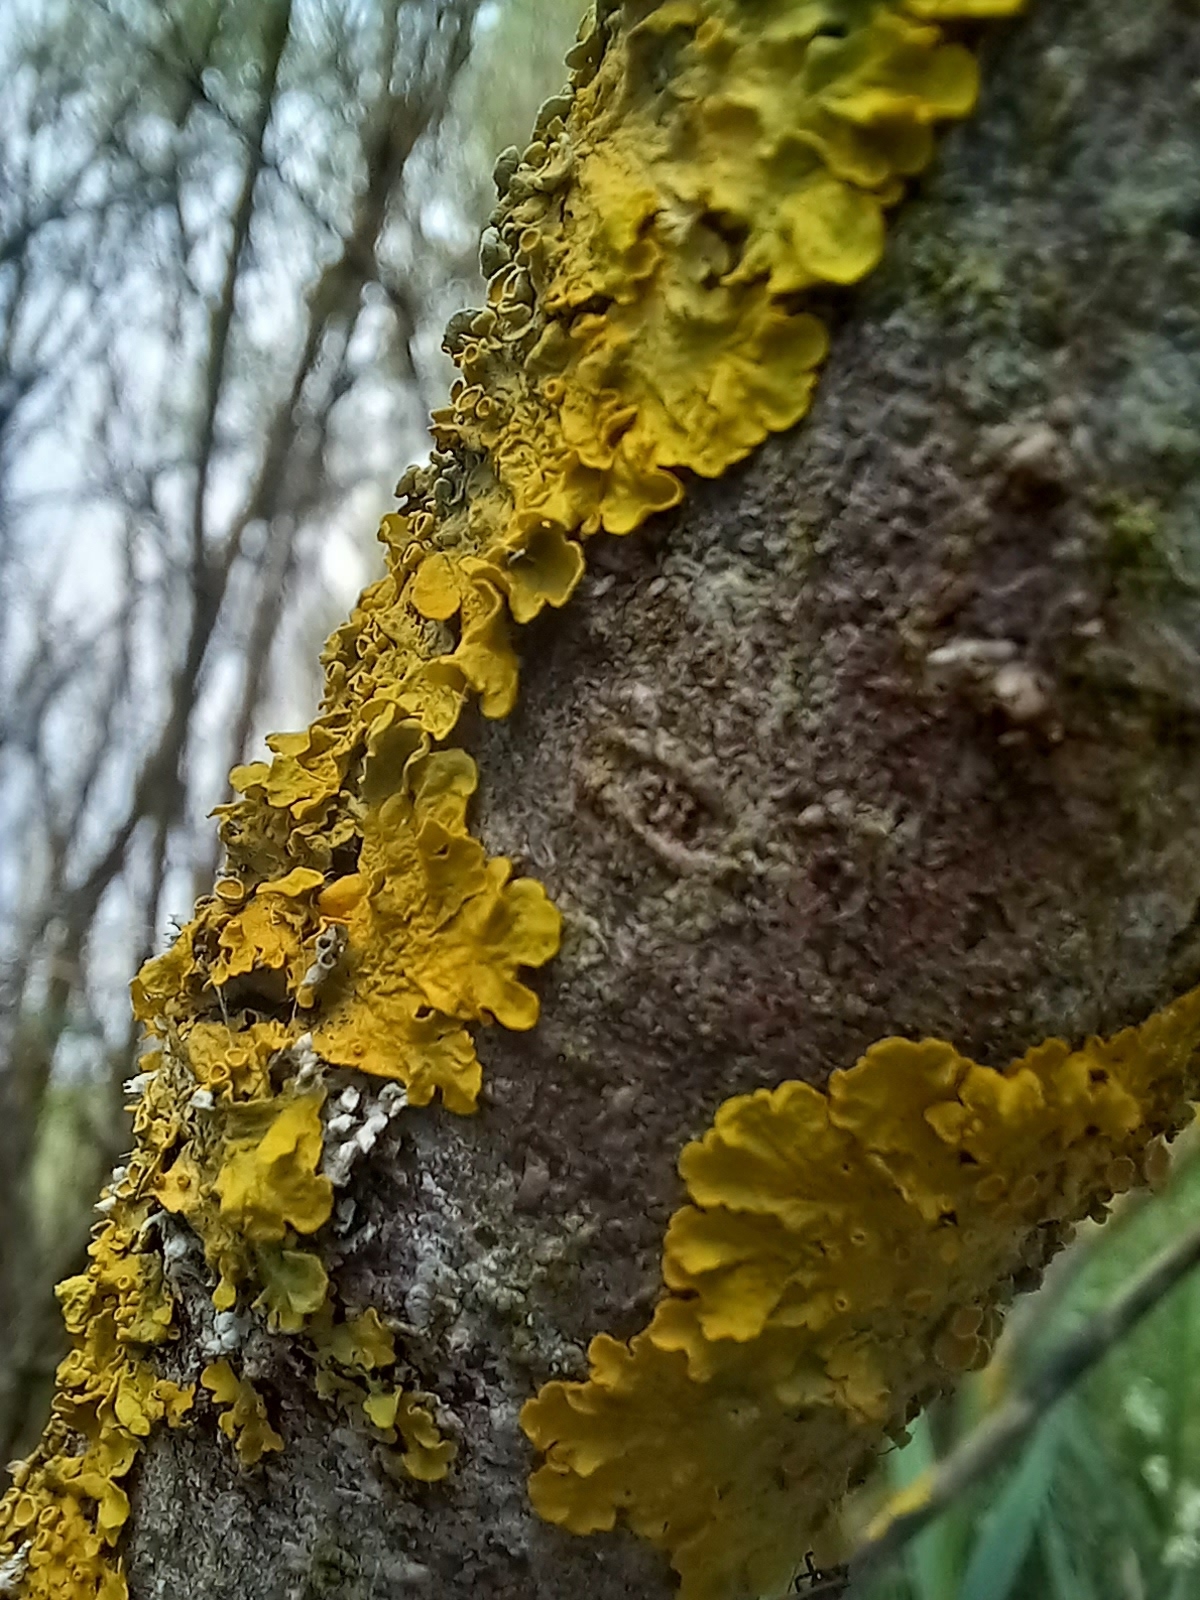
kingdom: Fungi
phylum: Ascomycota
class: Lecanoromycetes
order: Teloschistales
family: Teloschistaceae
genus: Xanthoria
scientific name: Xanthoria parietina
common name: Common orange lichen
